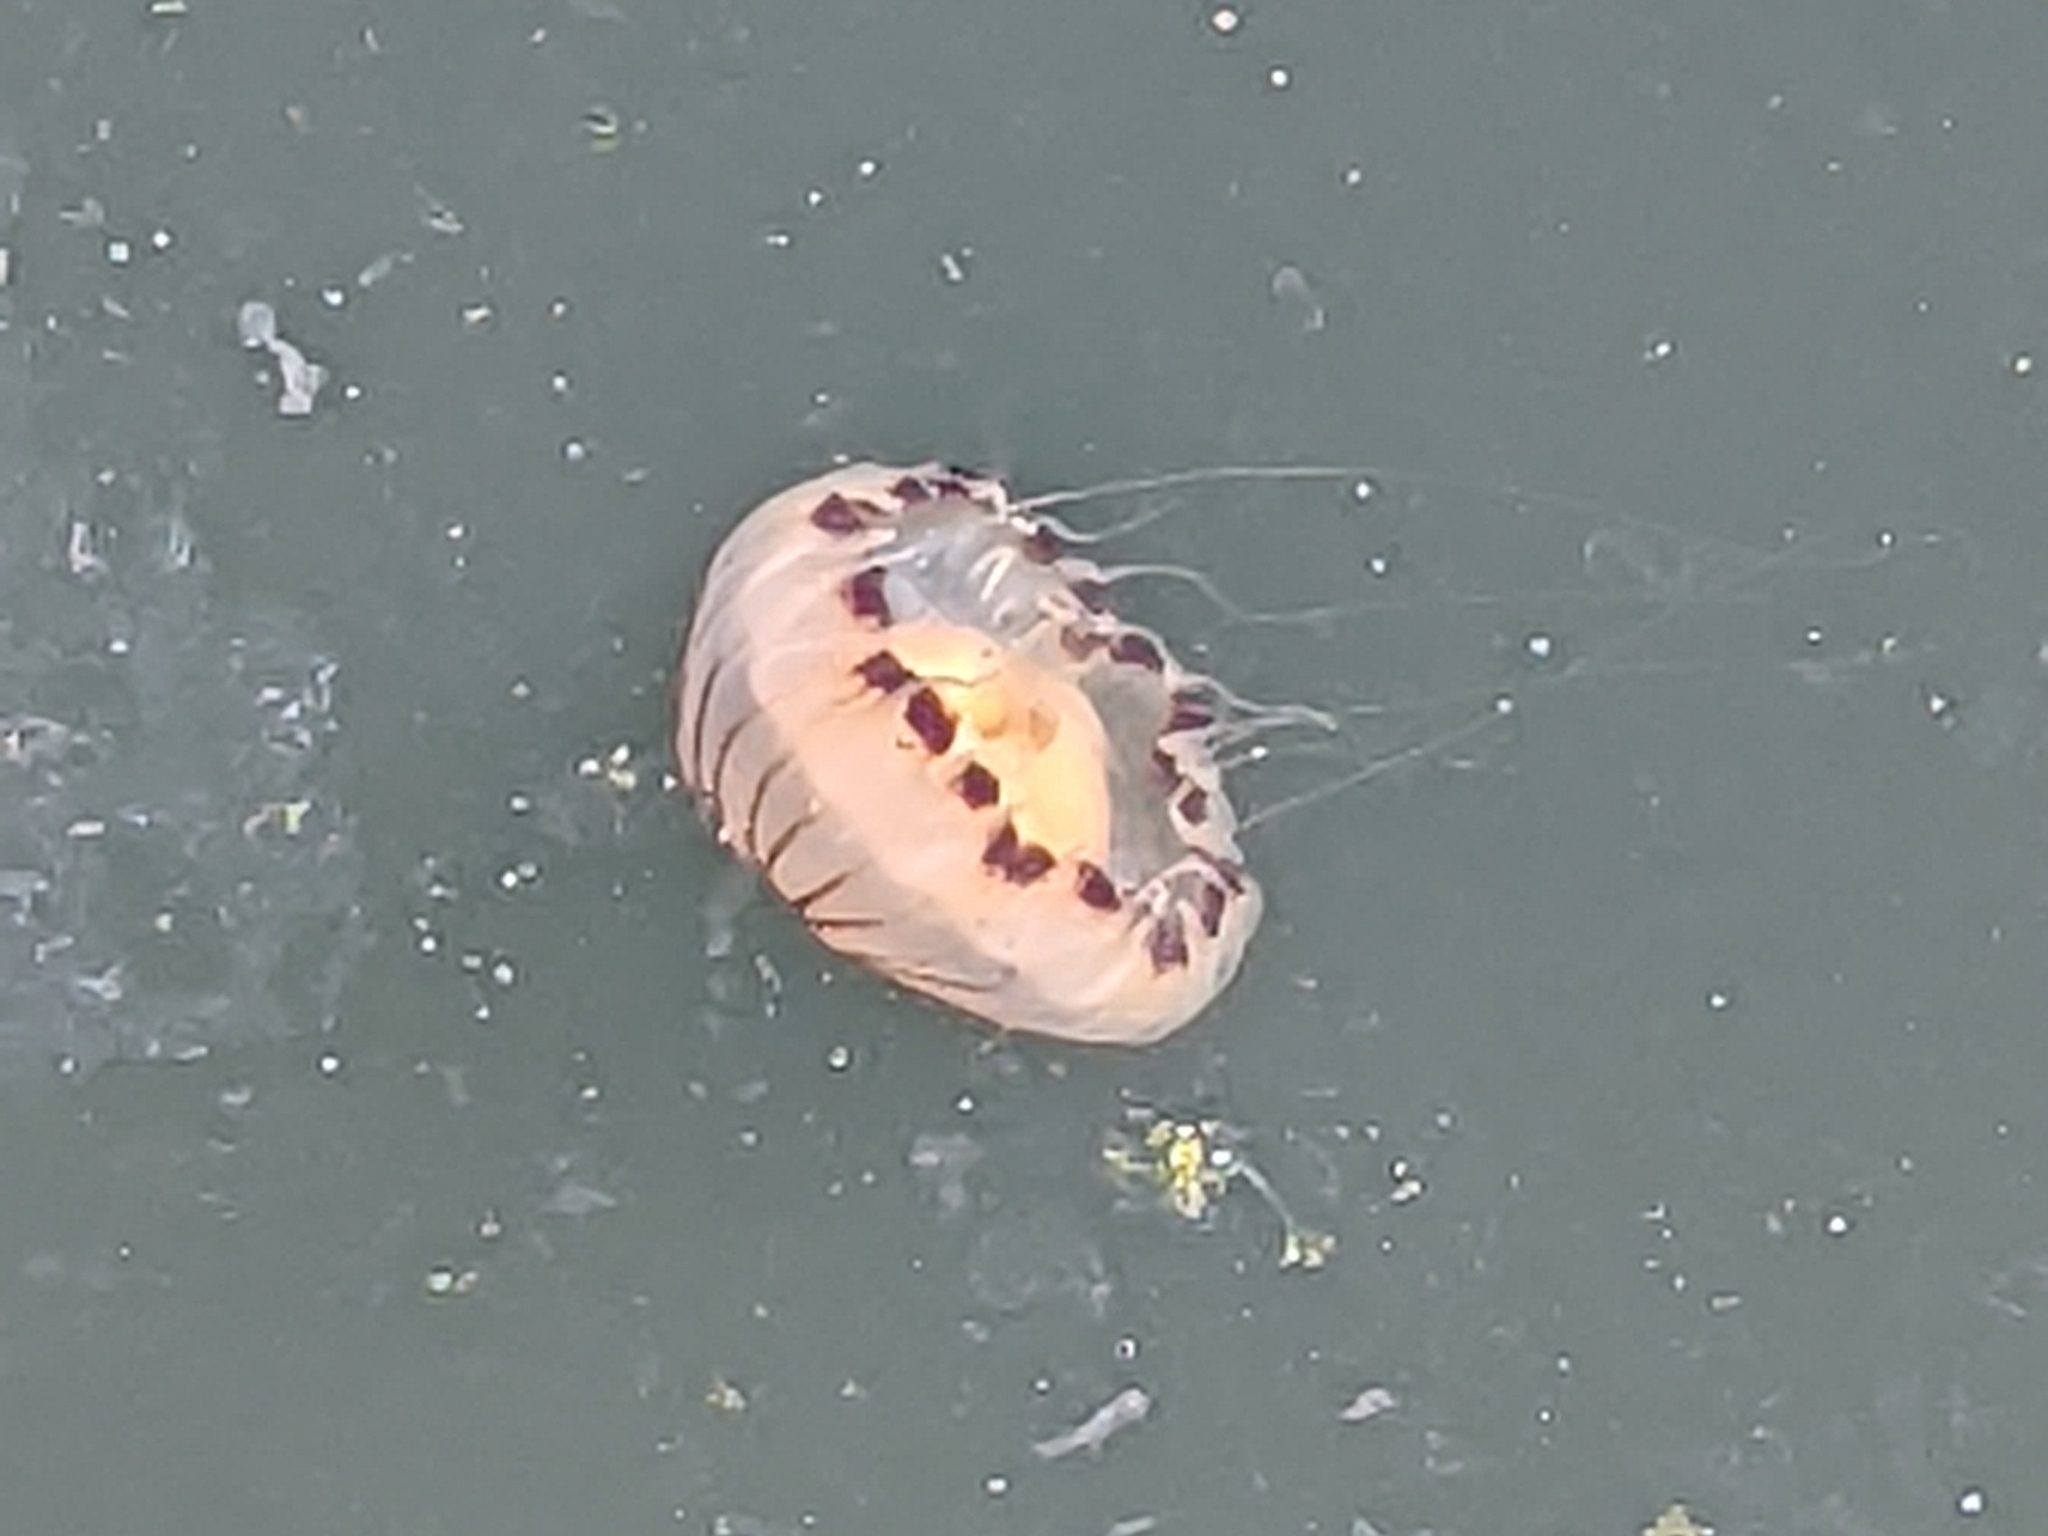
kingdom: Animalia
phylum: Cnidaria
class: Scyphozoa
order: Semaeostomeae
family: Pelagiidae
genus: Chrysaora
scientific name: Chrysaora hysoscella
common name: Compass jellyfish
